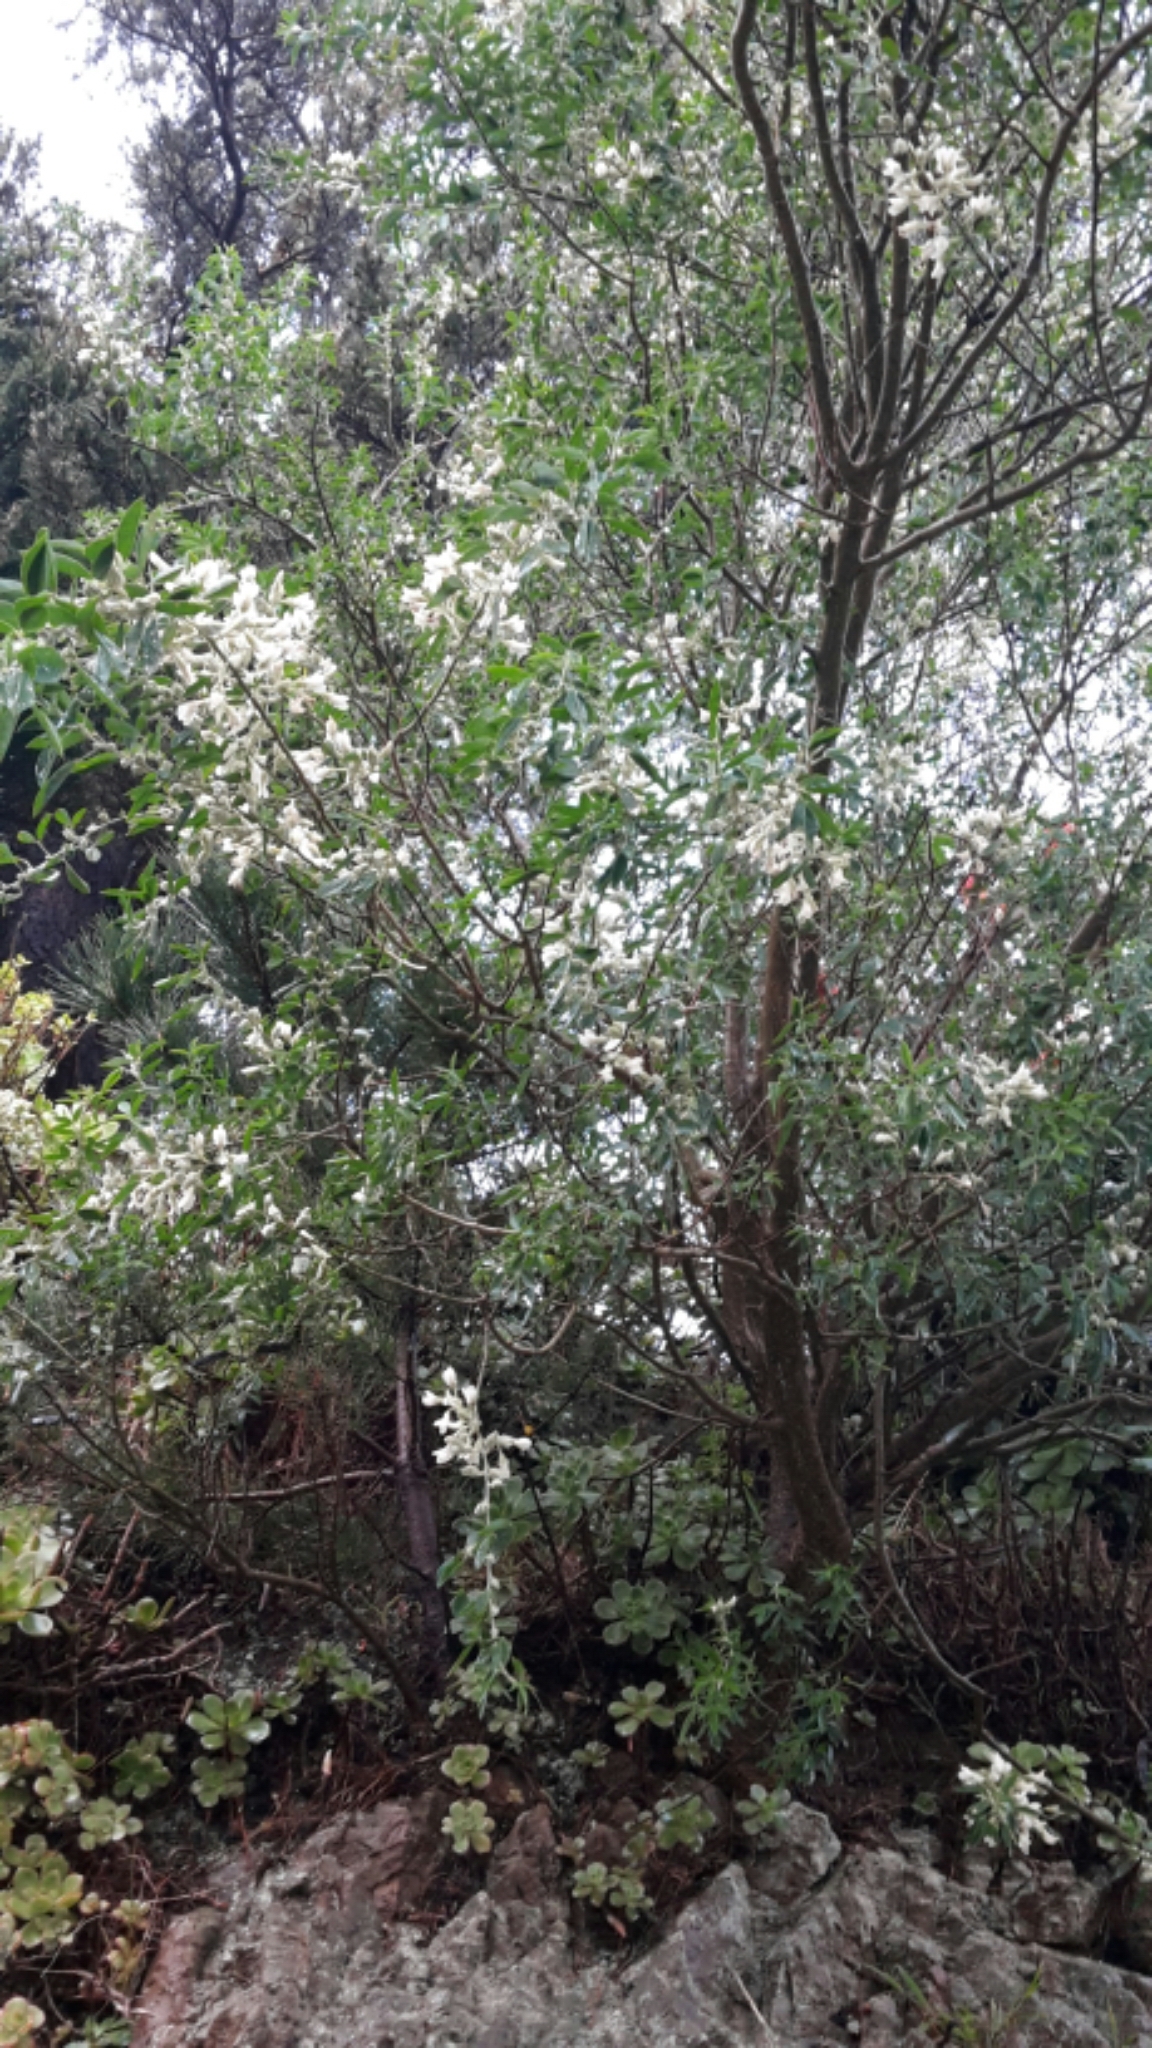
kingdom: Plantae
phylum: Tracheophyta
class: Magnoliopsida
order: Fabales
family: Fabaceae
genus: Chamaecytisus
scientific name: Chamaecytisus prolifer
